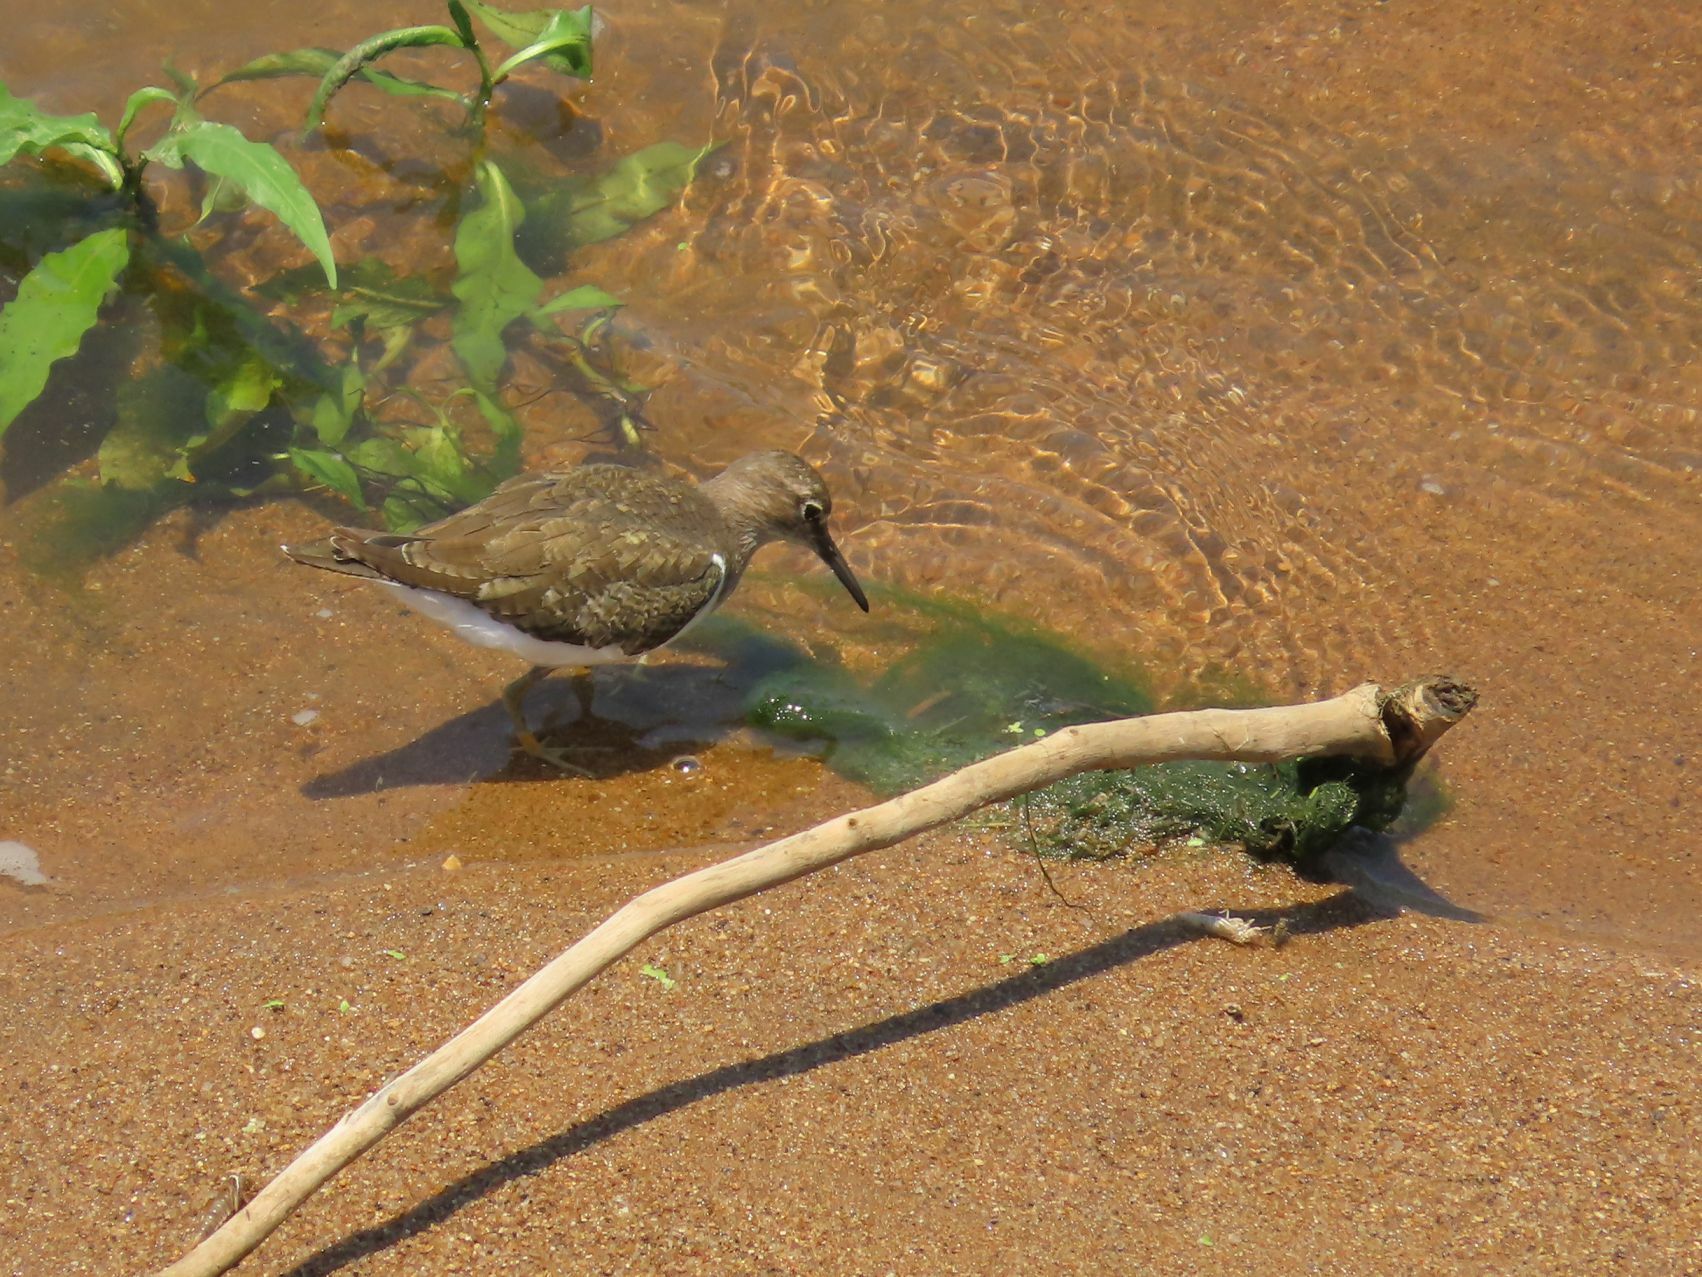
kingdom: Animalia
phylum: Chordata
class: Aves
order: Charadriiformes
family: Scolopacidae
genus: Actitis
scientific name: Actitis hypoleucos
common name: Common sandpiper
